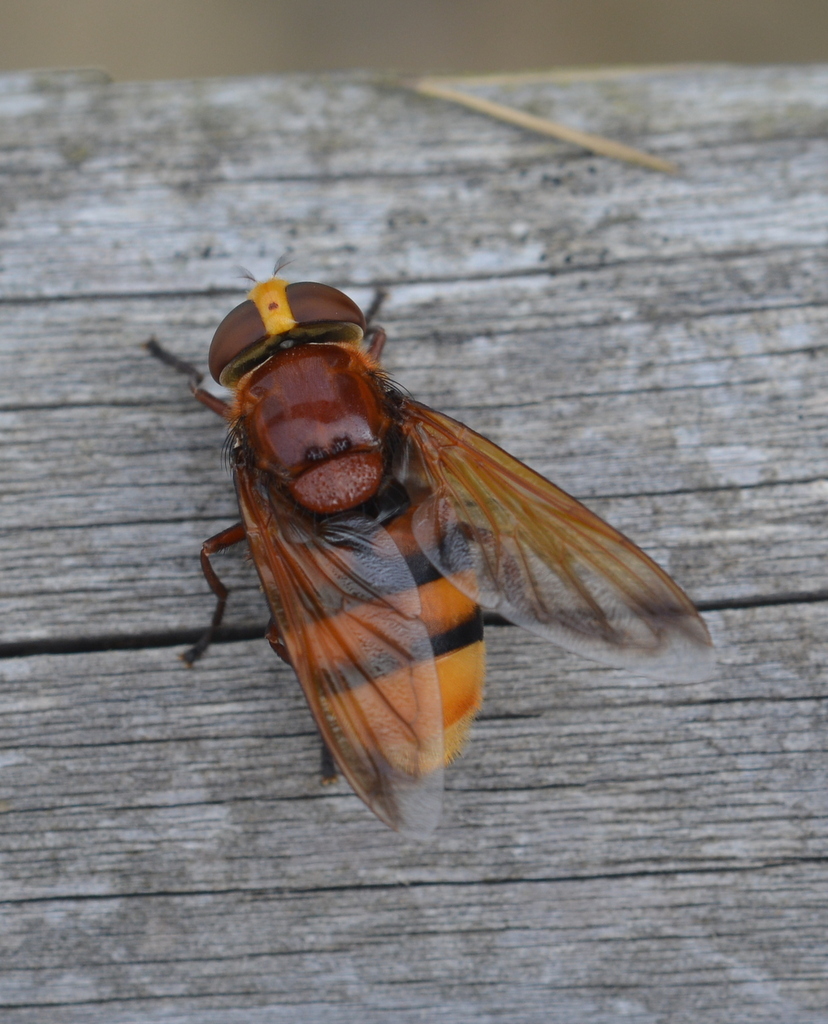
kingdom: Animalia
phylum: Arthropoda
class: Insecta
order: Diptera
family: Syrphidae
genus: Volucella
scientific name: Volucella zonaria
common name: Hornet hoverfly
